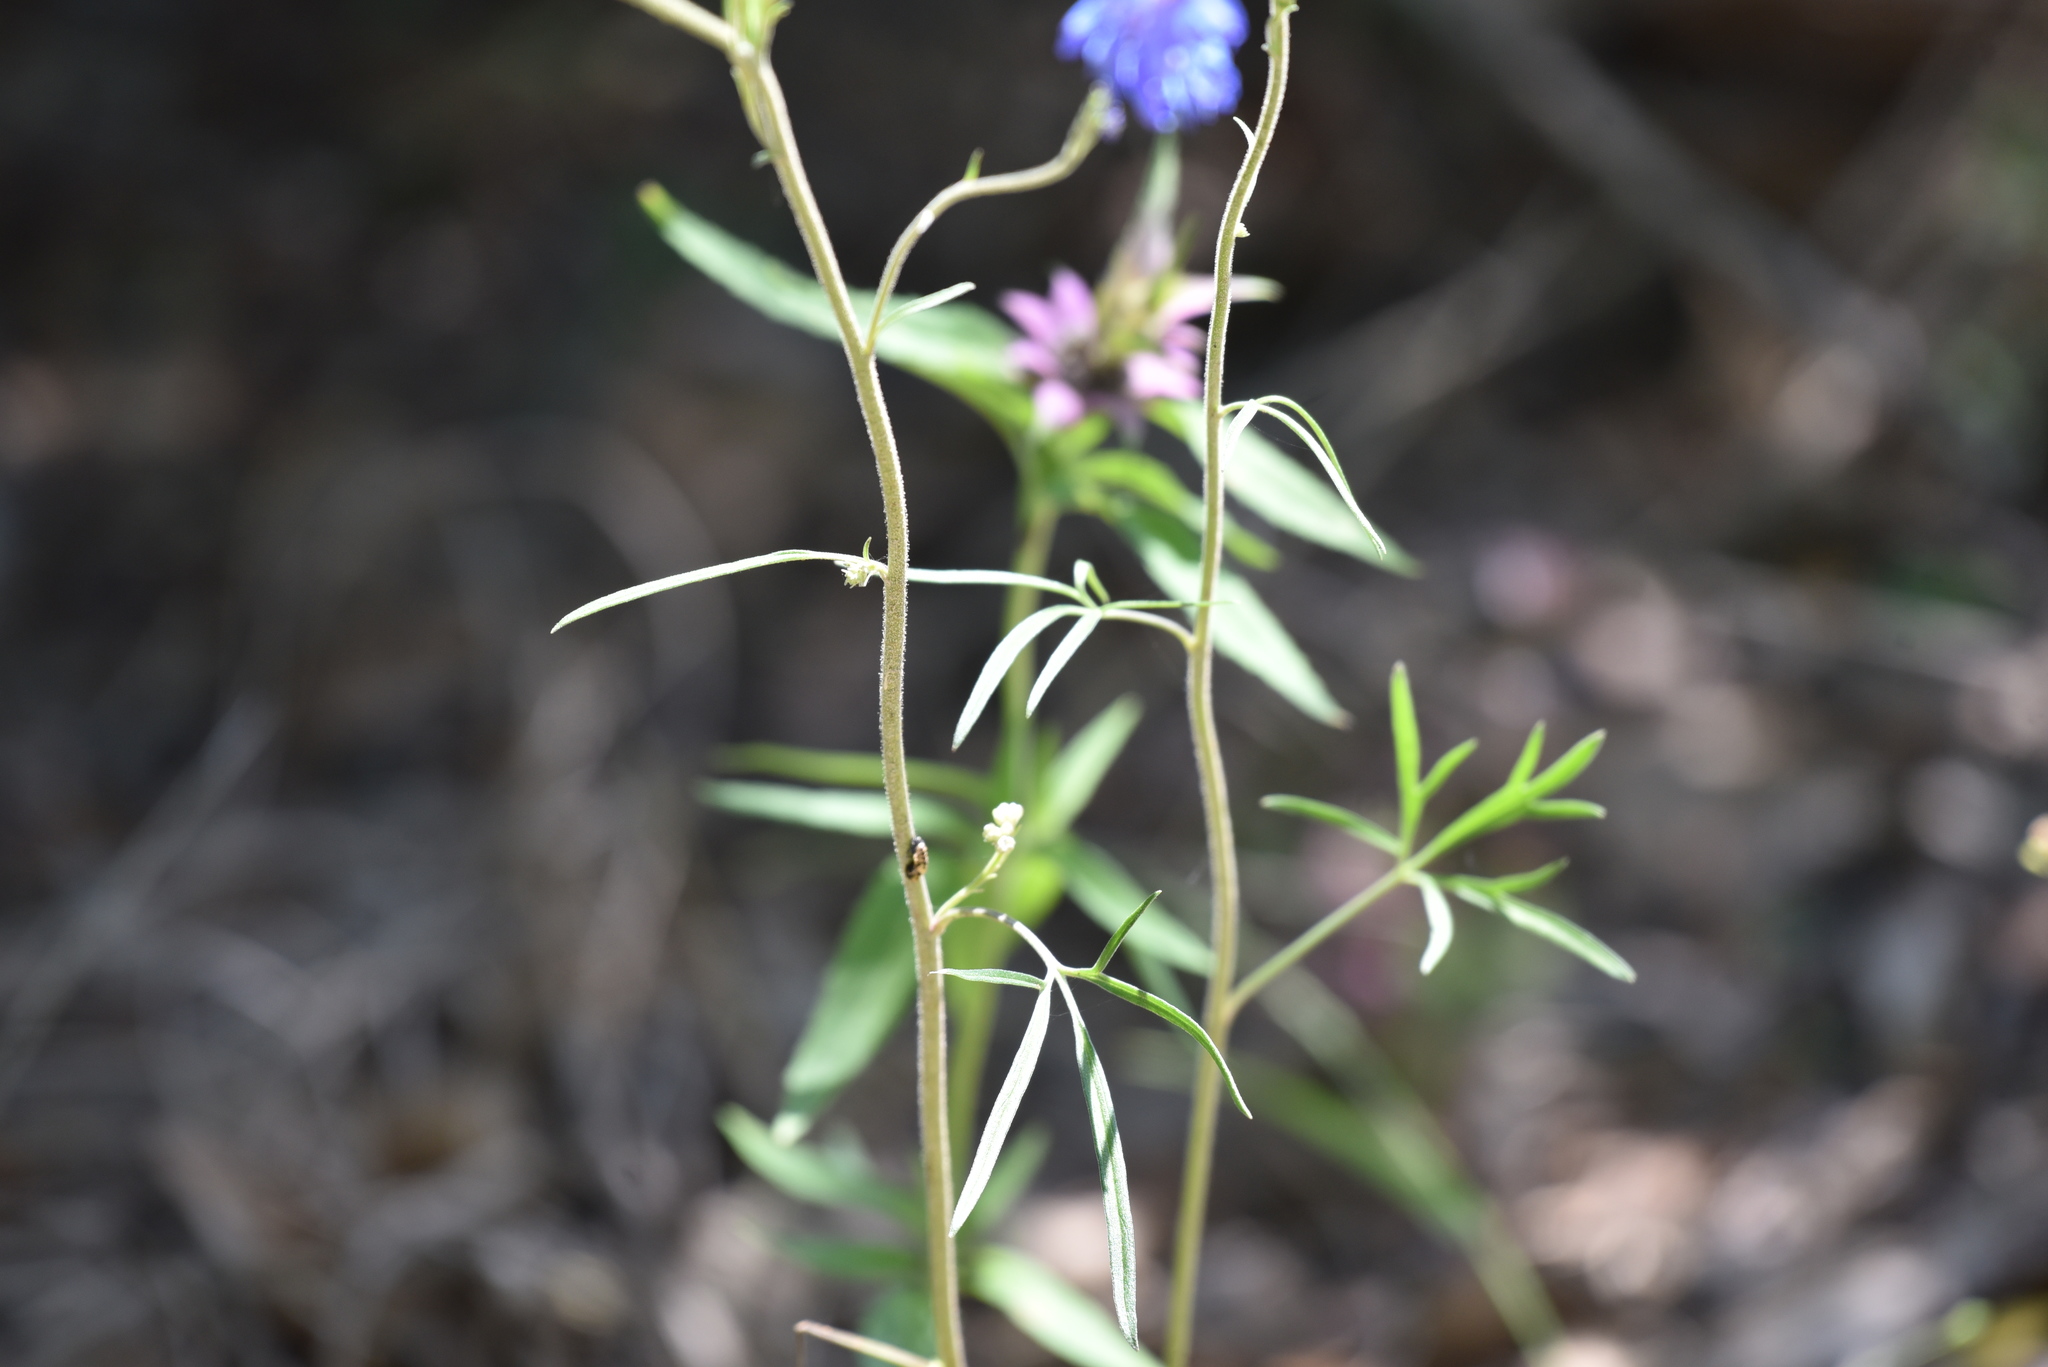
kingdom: Plantae
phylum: Tracheophyta
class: Magnoliopsida
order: Ranunculales
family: Ranunculaceae
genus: Delphinium
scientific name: Delphinium carolinianum
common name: Carolina larkspur
